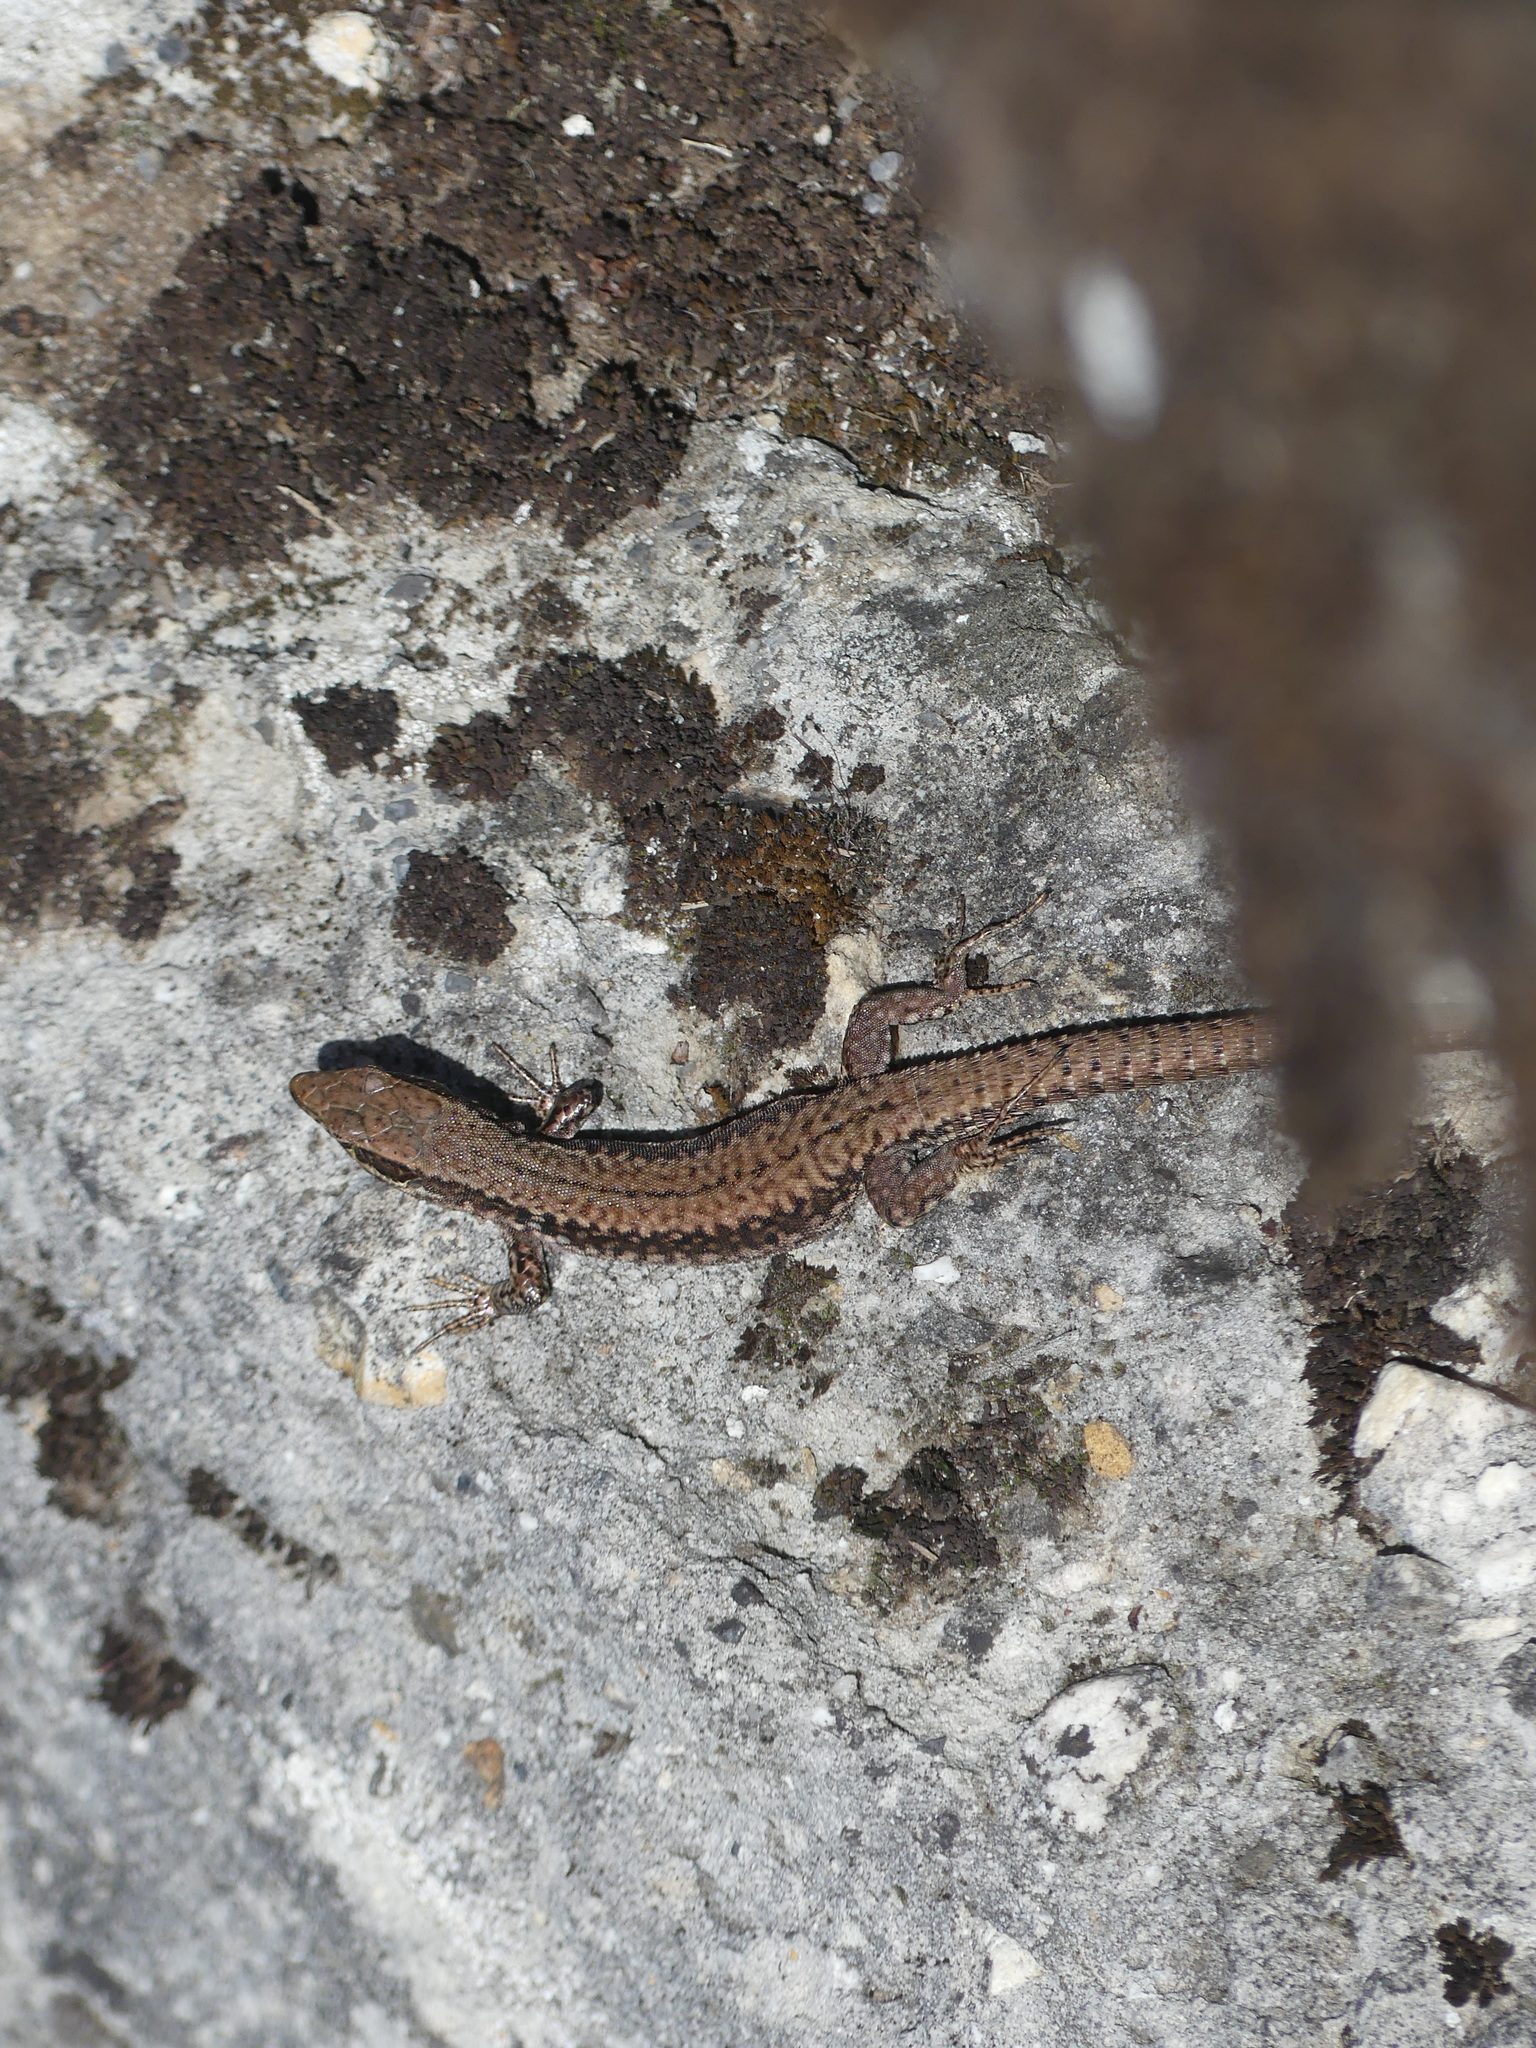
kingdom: Animalia
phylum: Chordata
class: Squamata
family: Lacertidae
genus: Podarcis
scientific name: Podarcis muralis
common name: Common wall lizard
